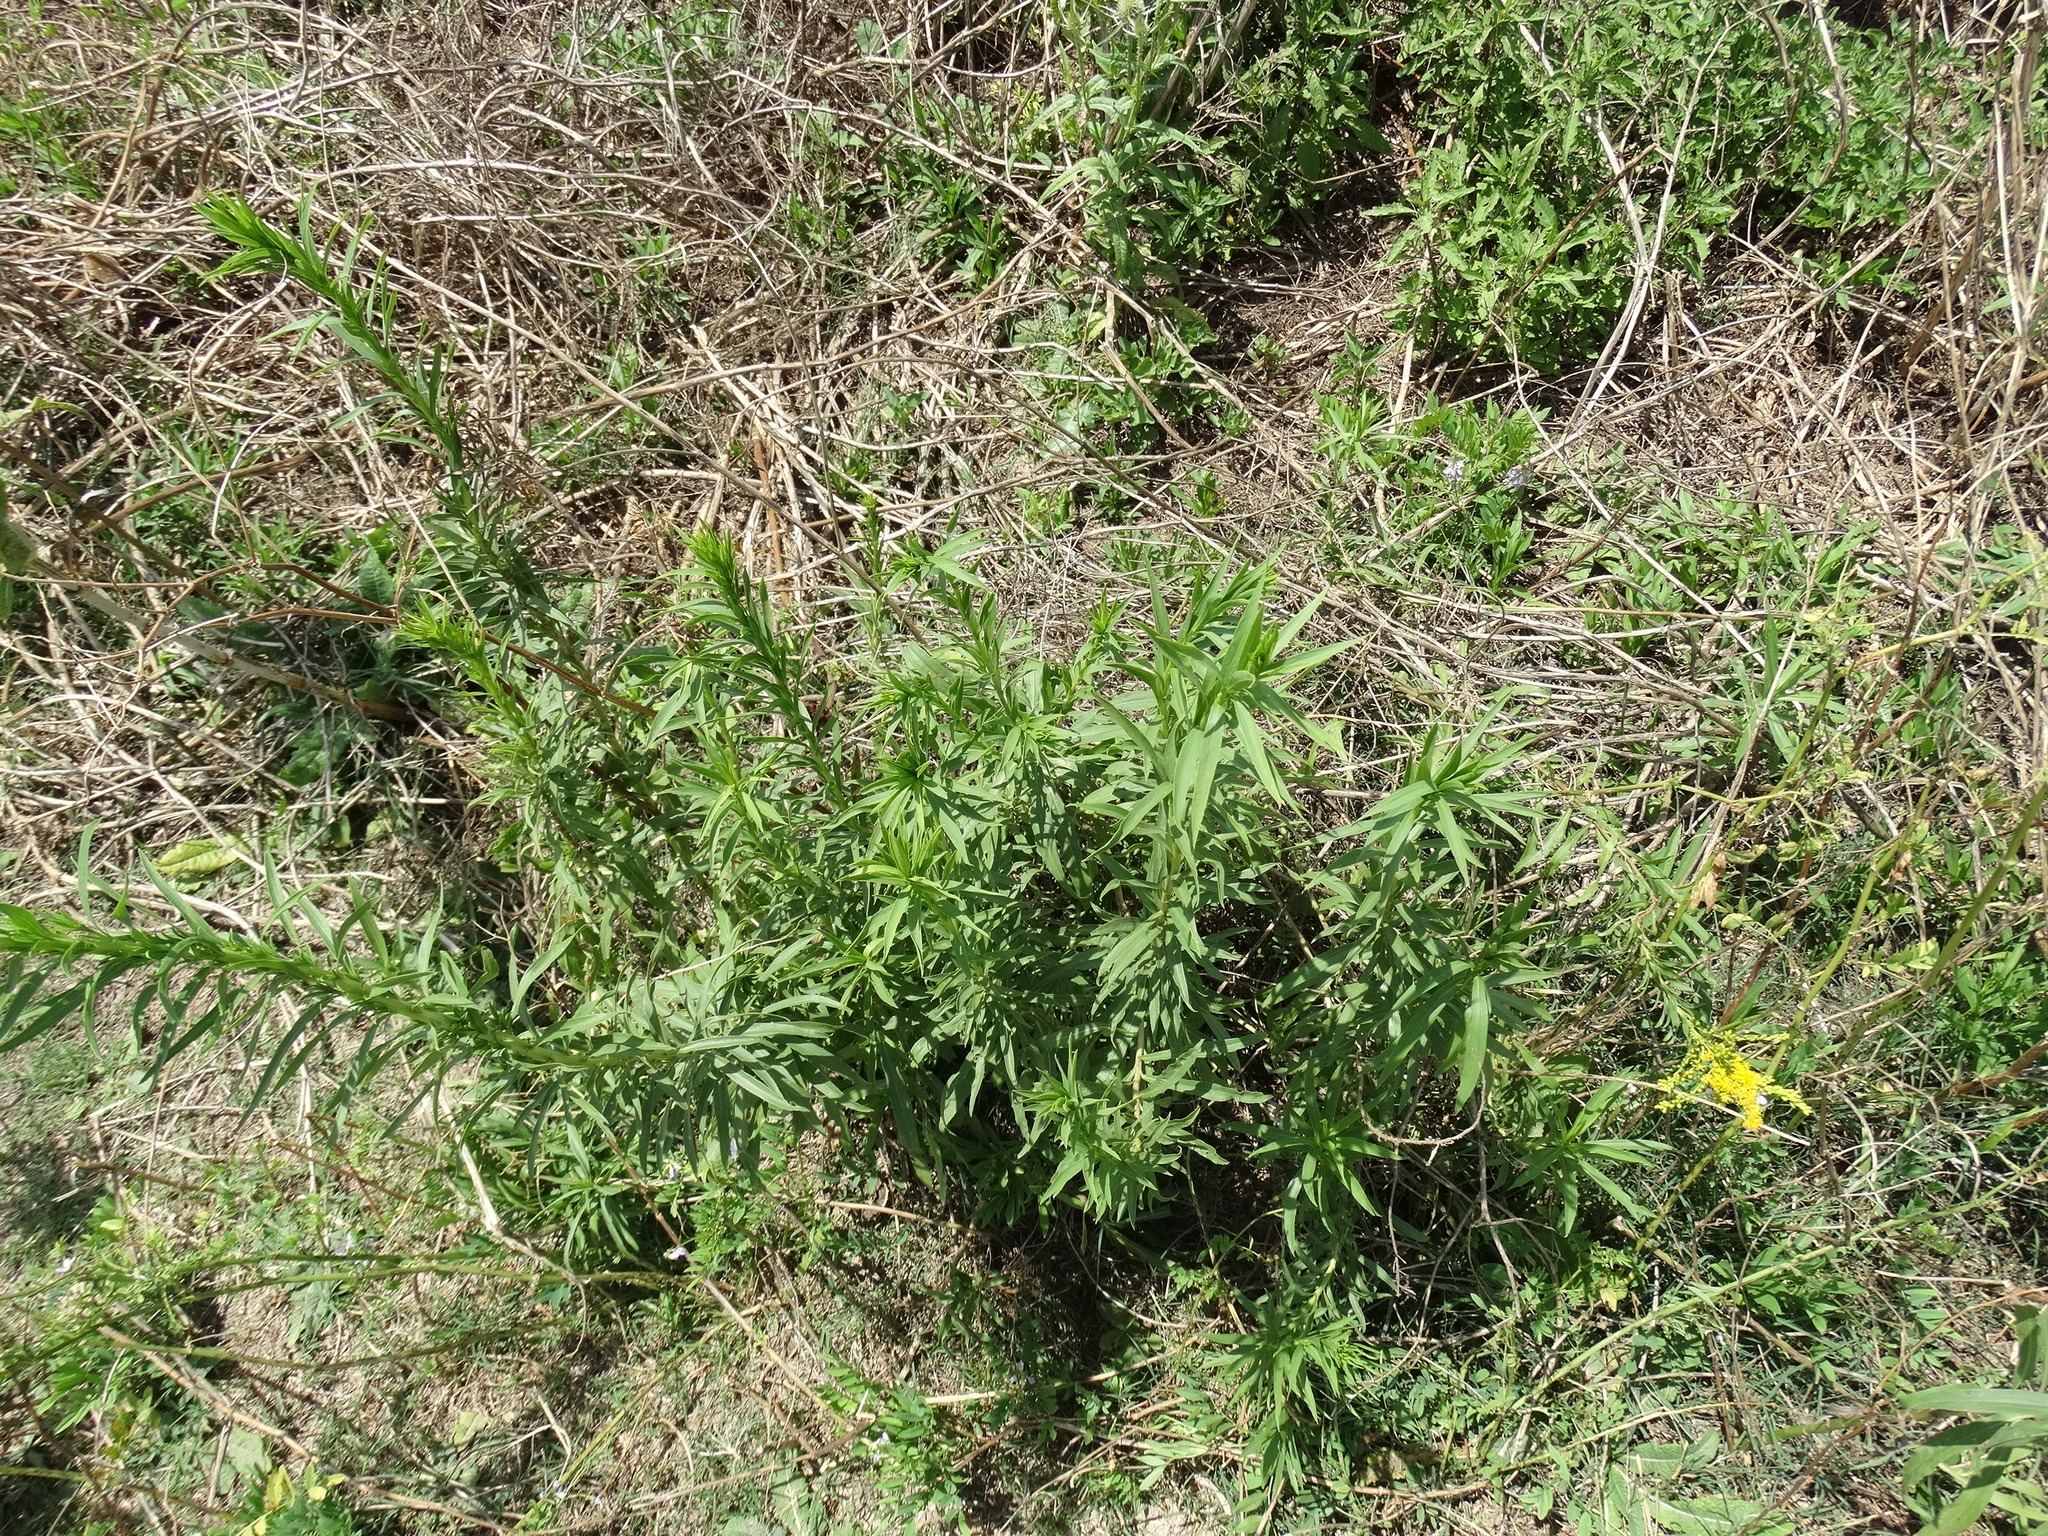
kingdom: Plantae
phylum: Tracheophyta
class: Magnoliopsida
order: Asterales
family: Asteraceae
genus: Solidago
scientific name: Solidago chilensis
